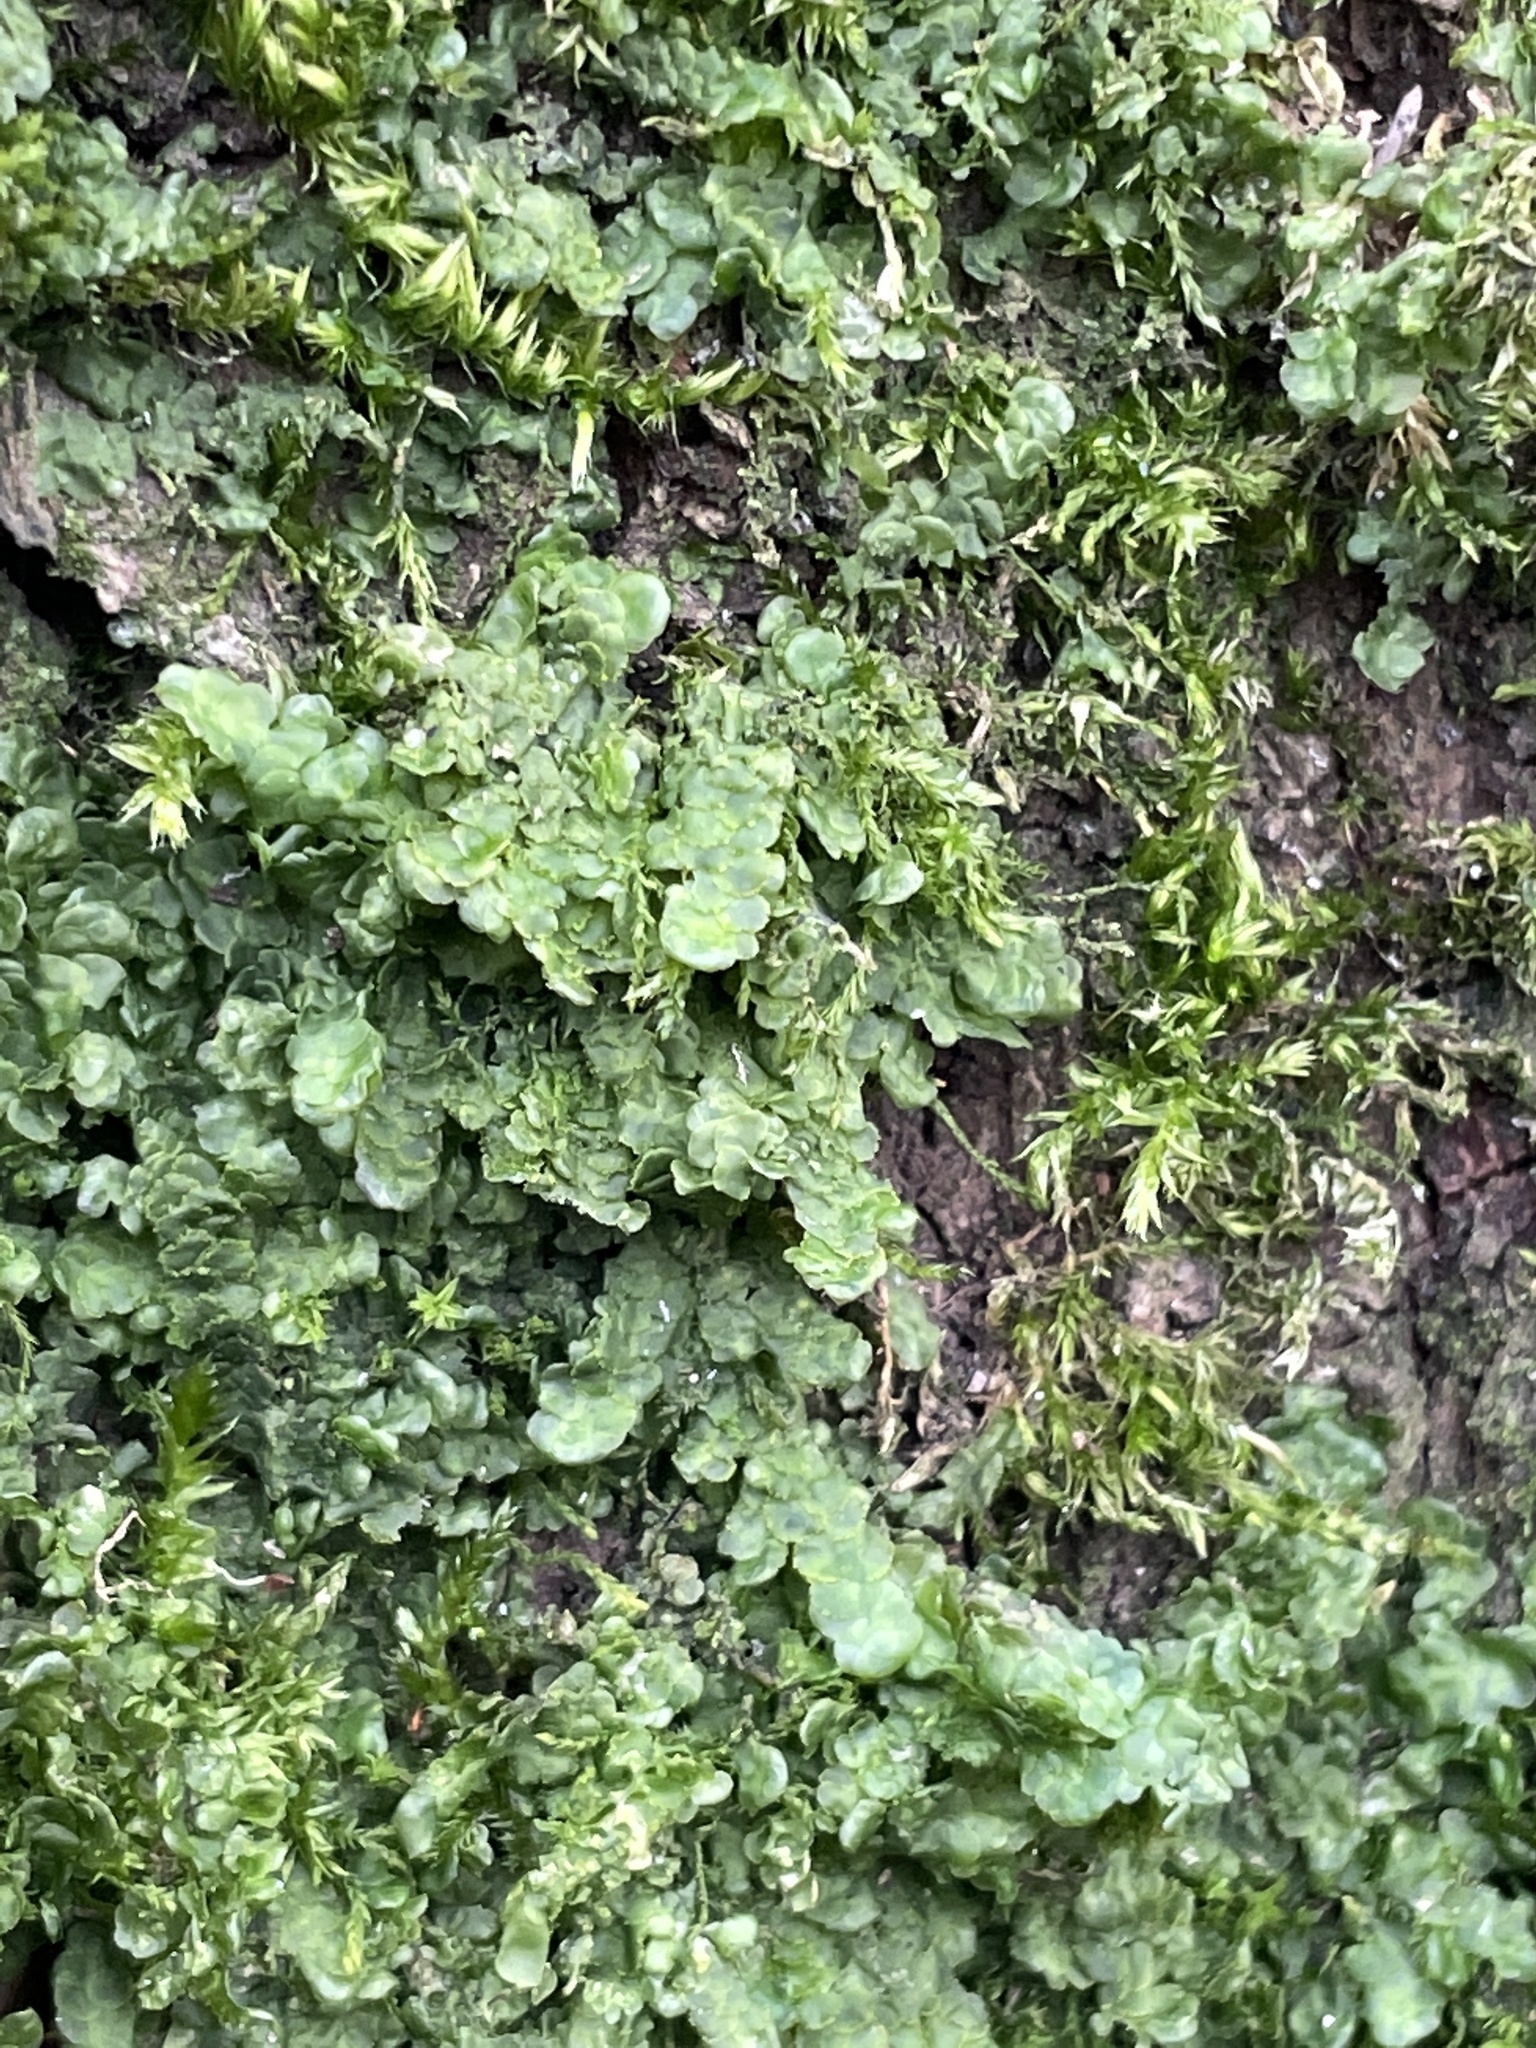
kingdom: Plantae
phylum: Marchantiophyta
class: Jungermanniopsida
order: Porellales
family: Radulaceae
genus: Radula
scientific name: Radula complanata
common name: Flat-leaved scalewort
